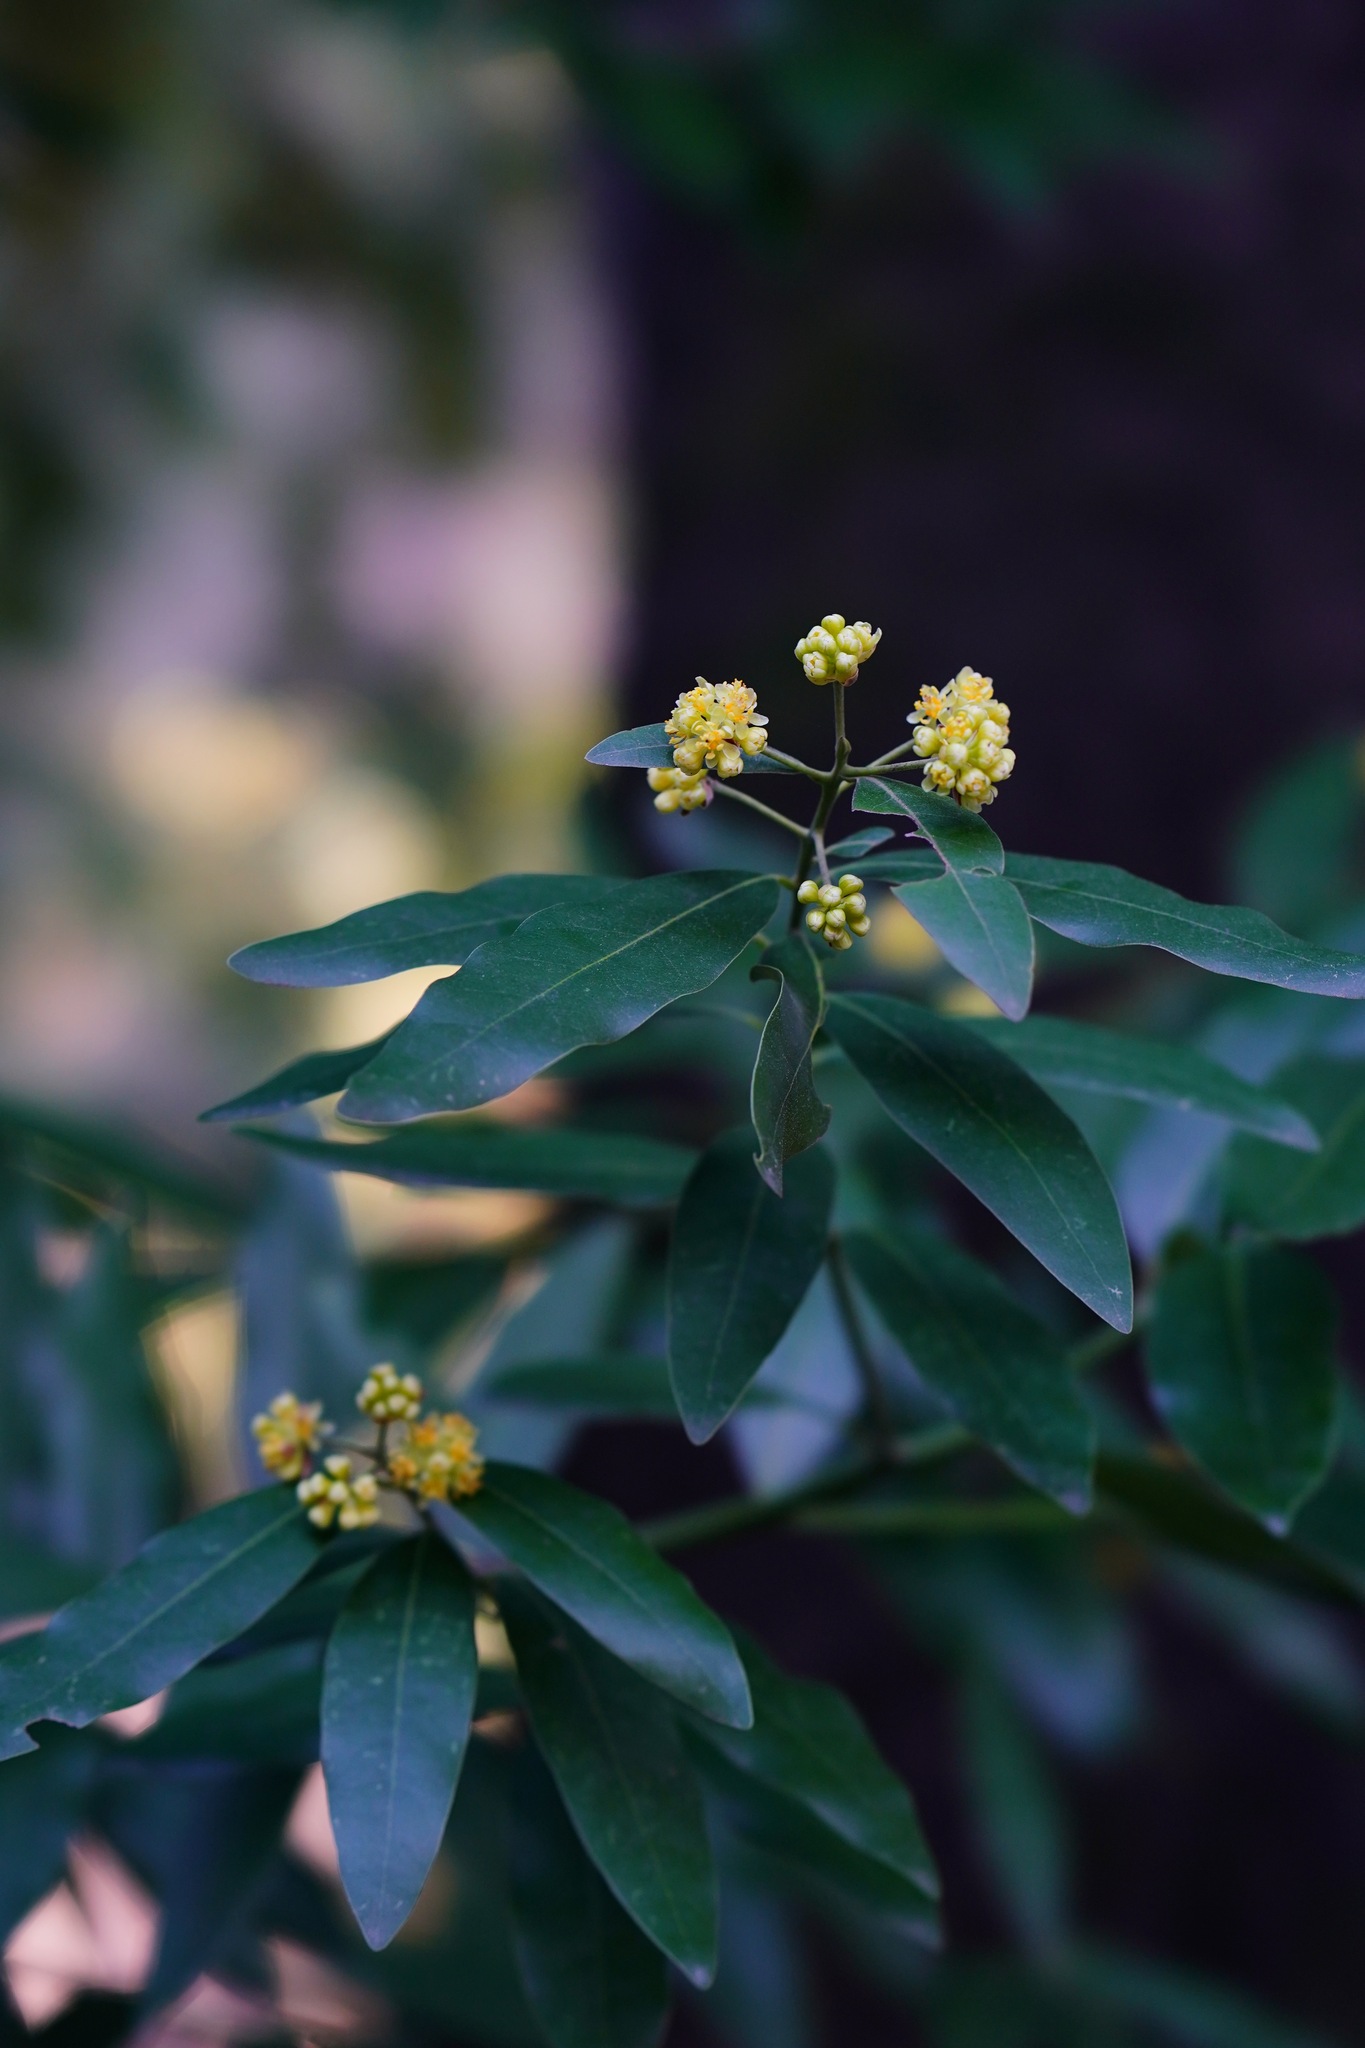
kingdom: Plantae
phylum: Tracheophyta
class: Magnoliopsida
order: Laurales
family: Lauraceae
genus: Umbellularia
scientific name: Umbellularia californica
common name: California bay
